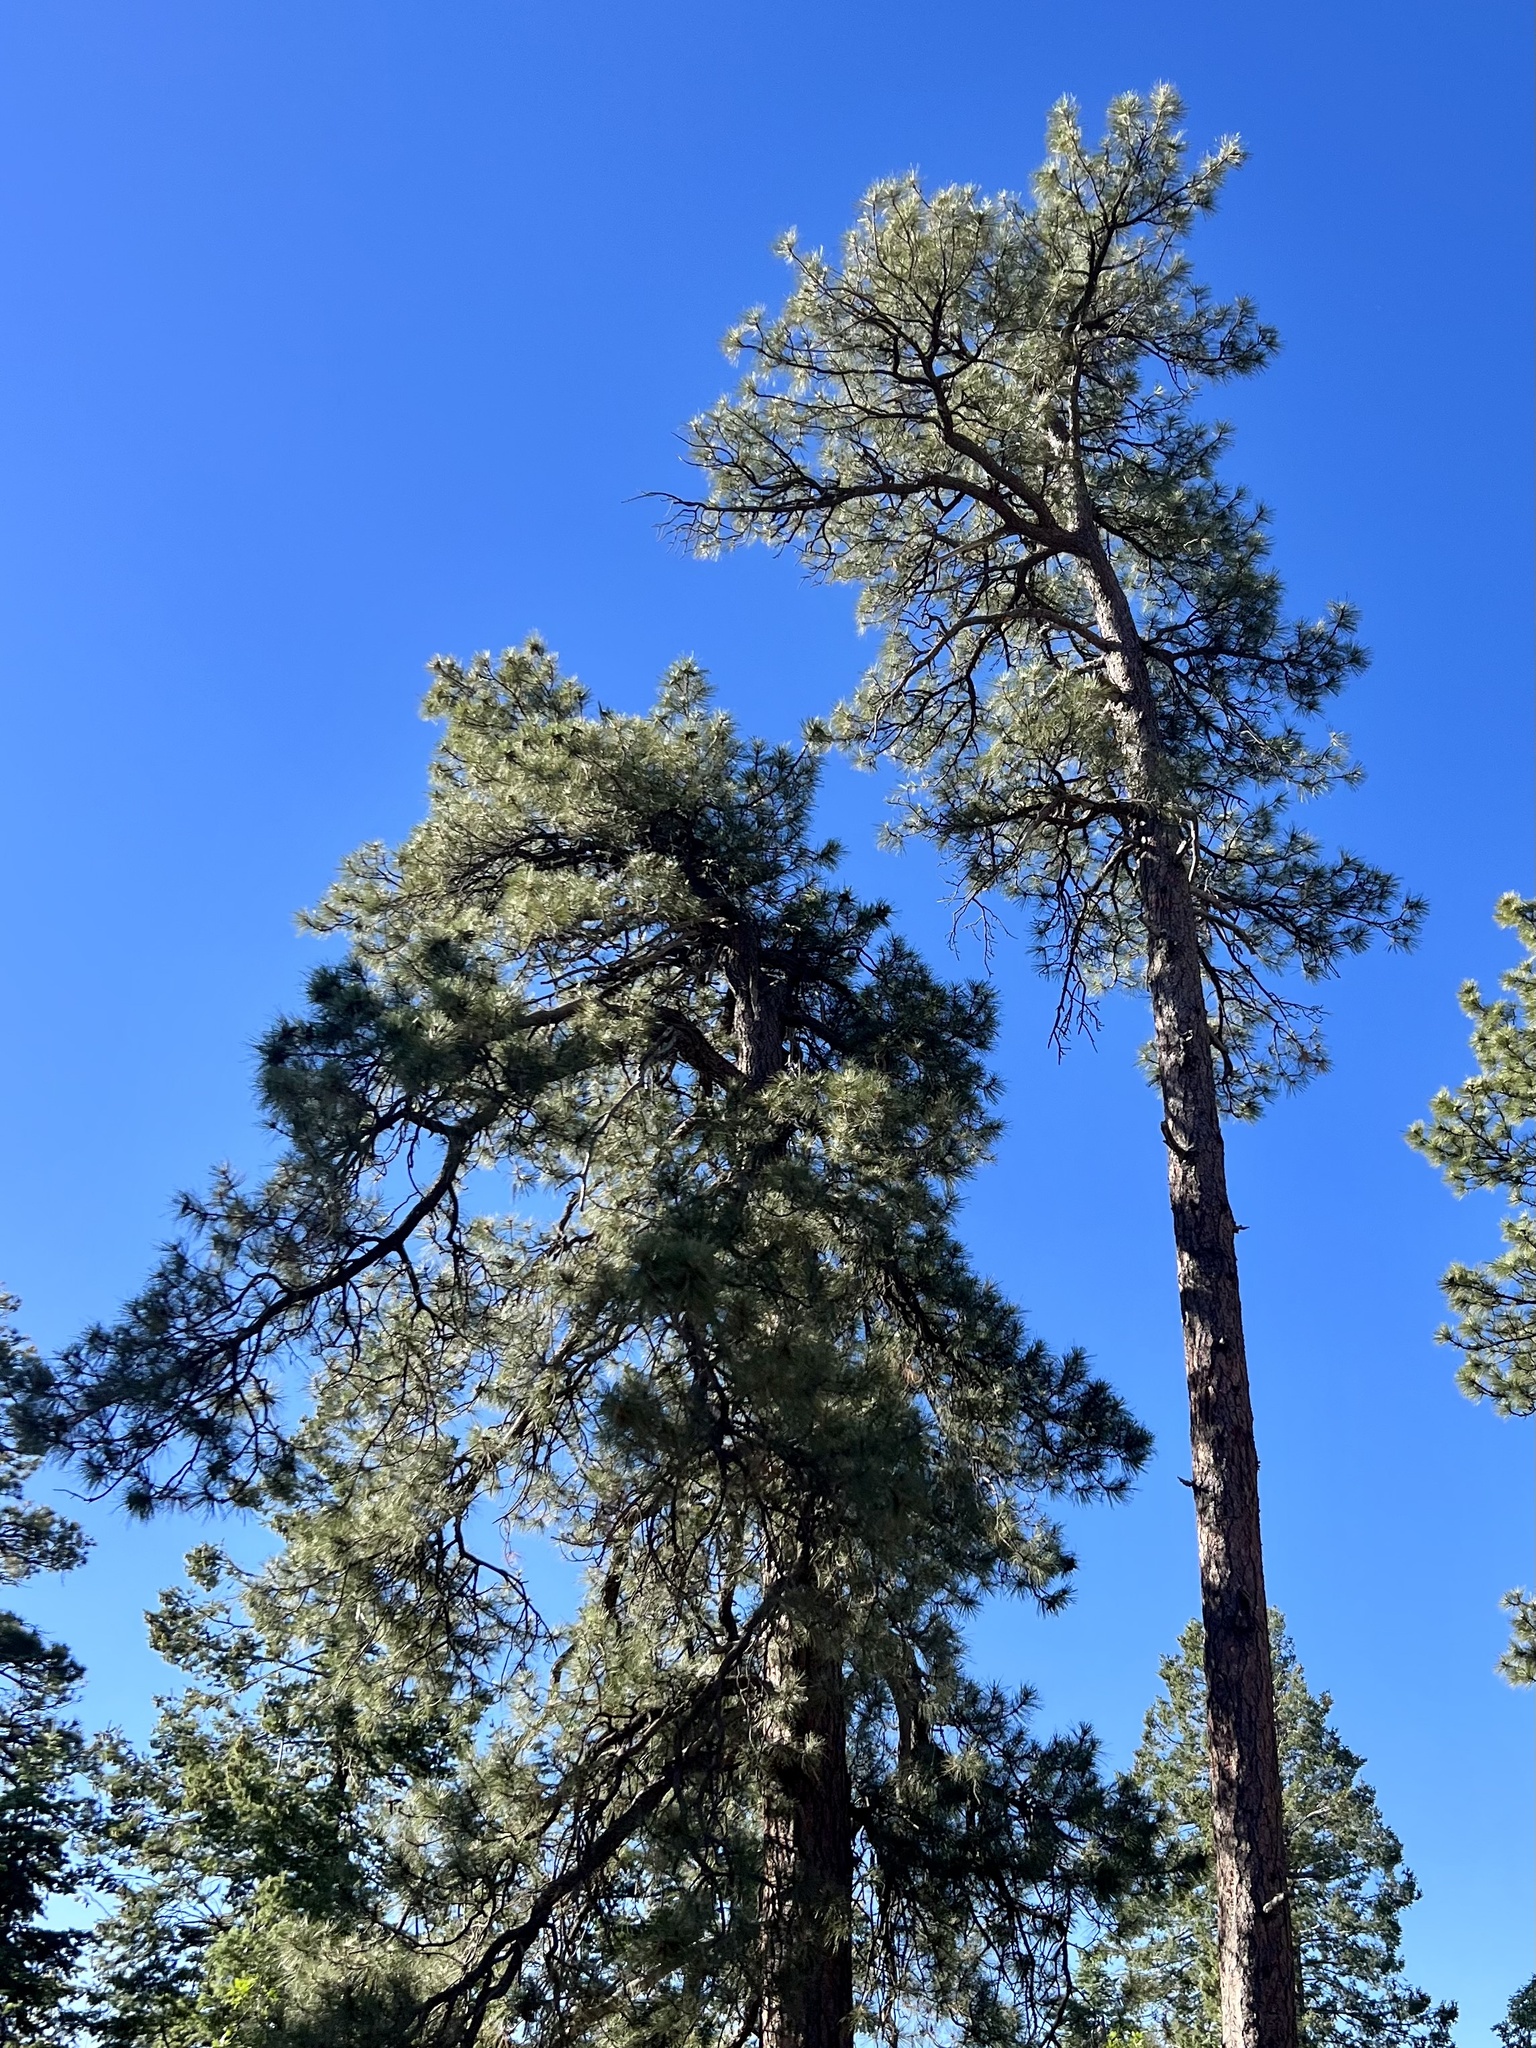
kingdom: Plantae
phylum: Tracheophyta
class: Pinopsida
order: Pinales
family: Pinaceae
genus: Pinus
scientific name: Pinus ponderosa
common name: Western yellow-pine
